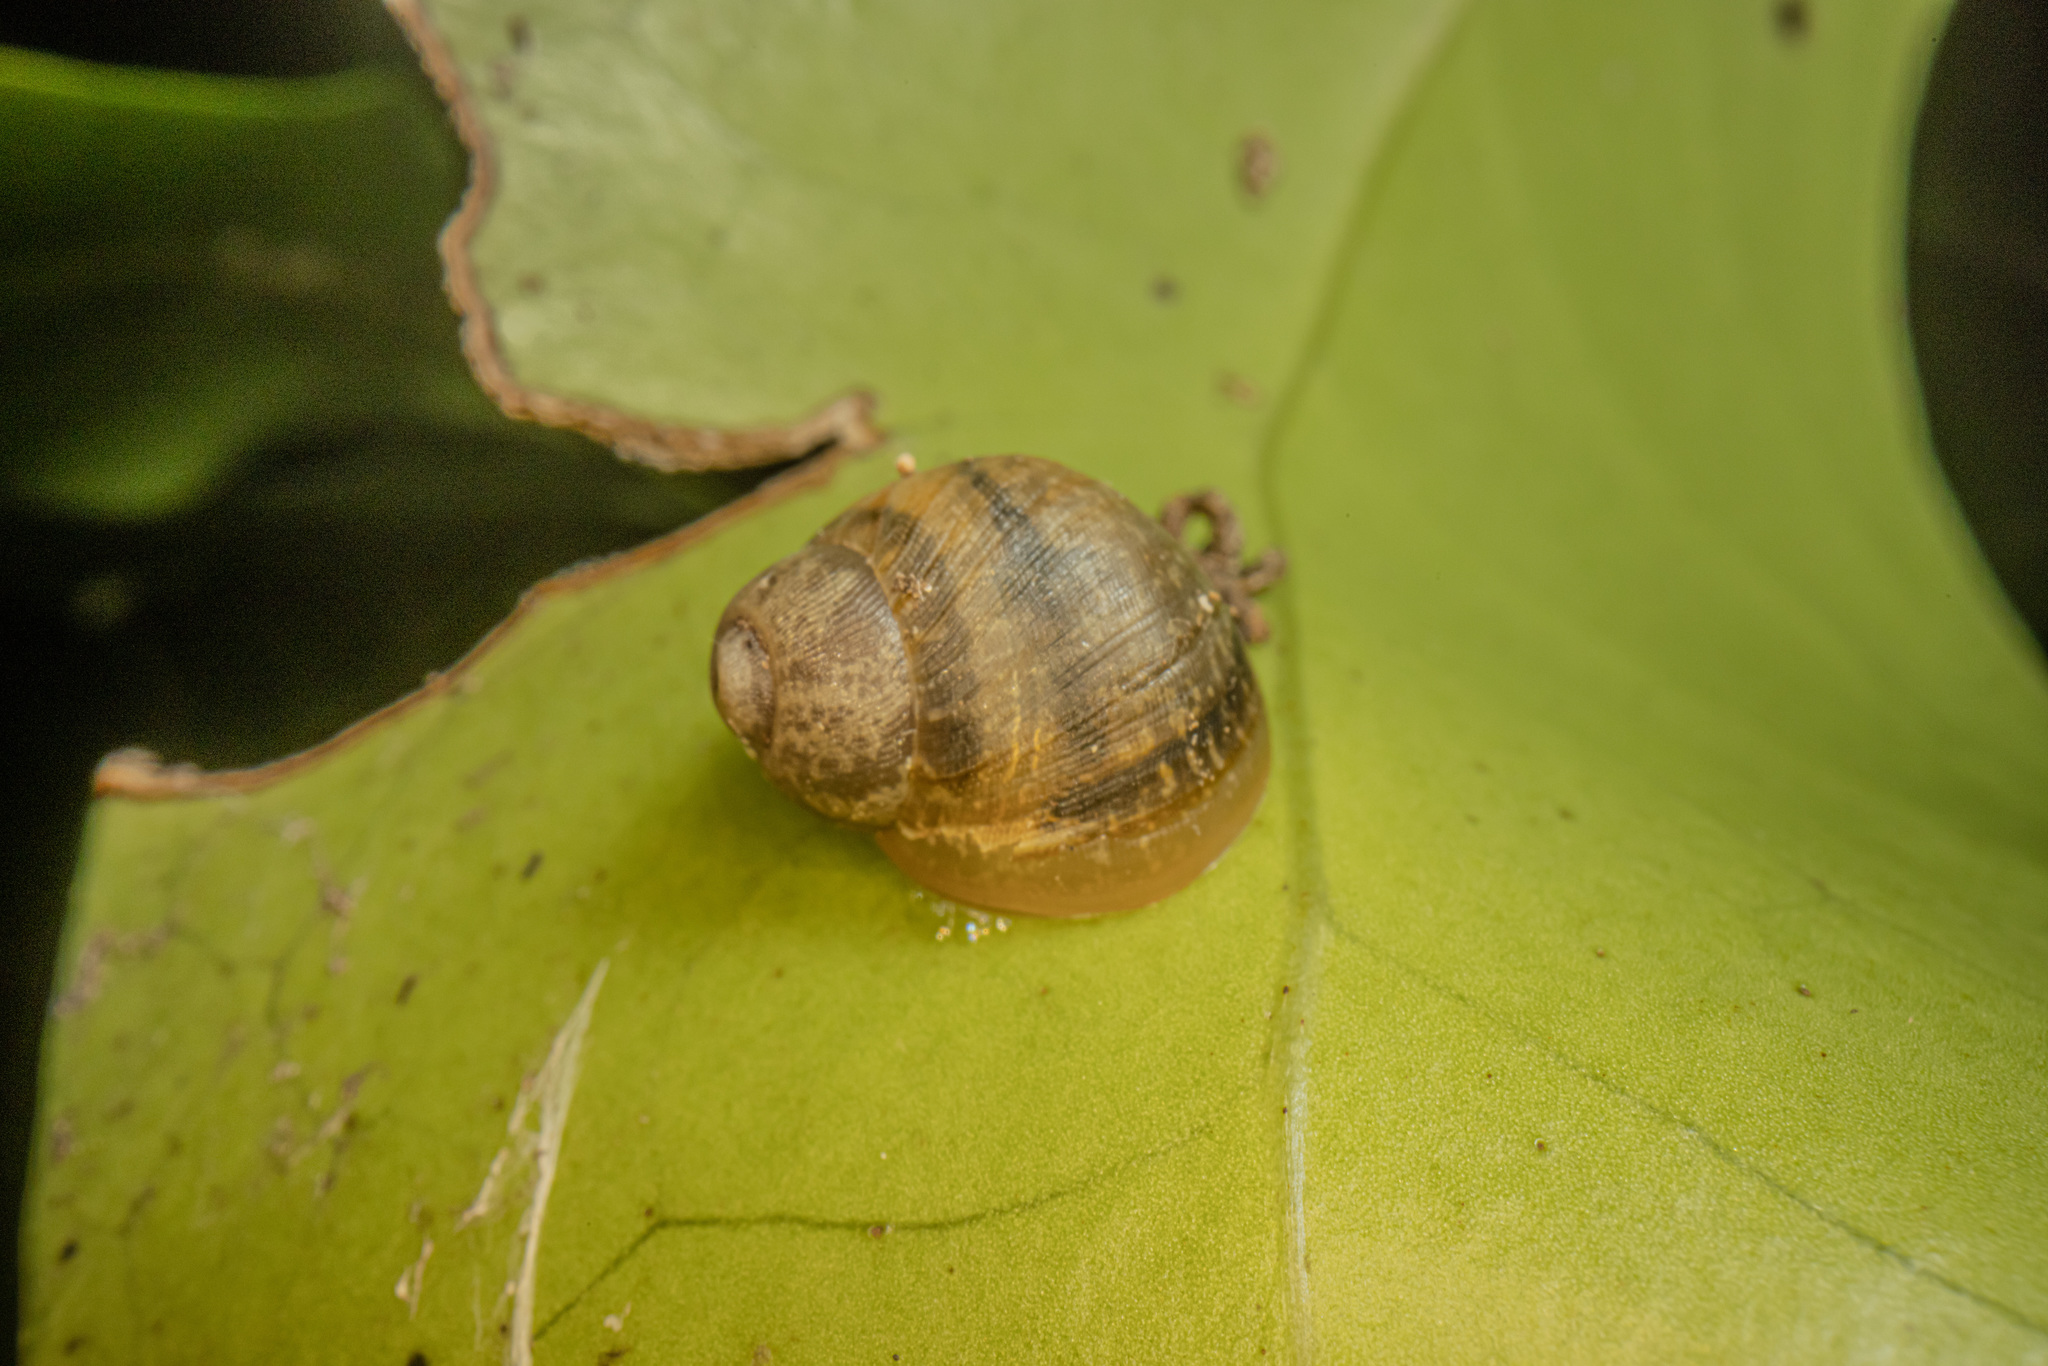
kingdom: Animalia
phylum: Mollusca
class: Gastropoda
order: Stylommatophora
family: Helicidae
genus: Cornu
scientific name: Cornu aspersum
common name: Brown garden snail
